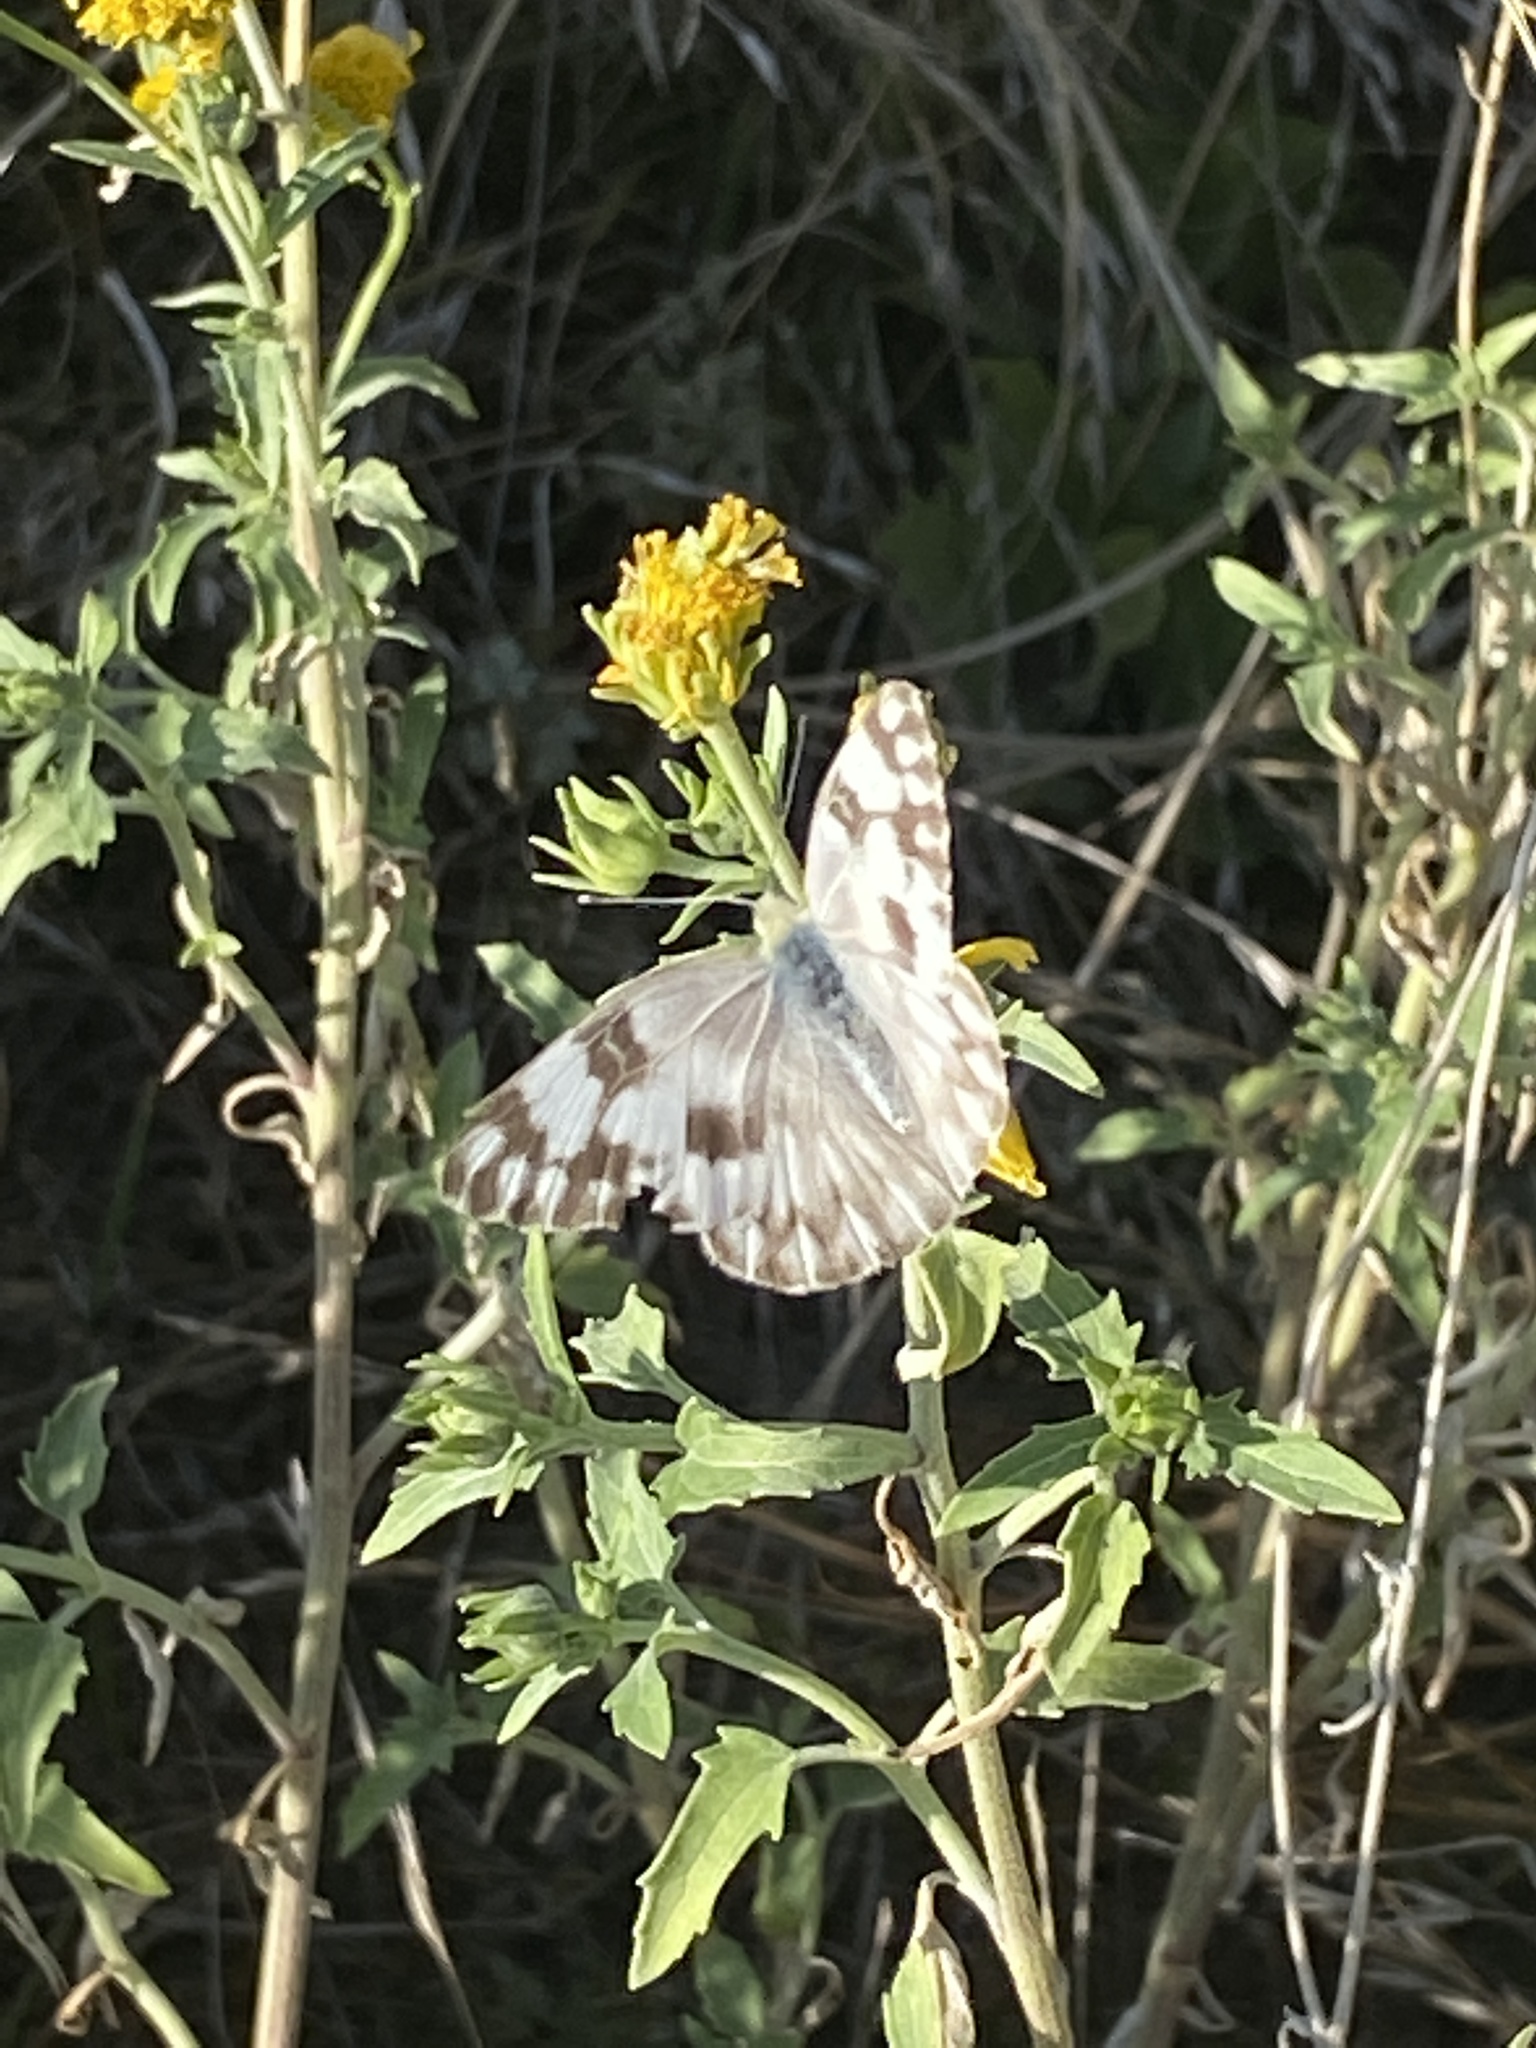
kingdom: Animalia
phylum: Arthropoda
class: Insecta
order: Lepidoptera
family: Pieridae
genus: Pontia
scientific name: Pontia protodice
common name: Checkered white
